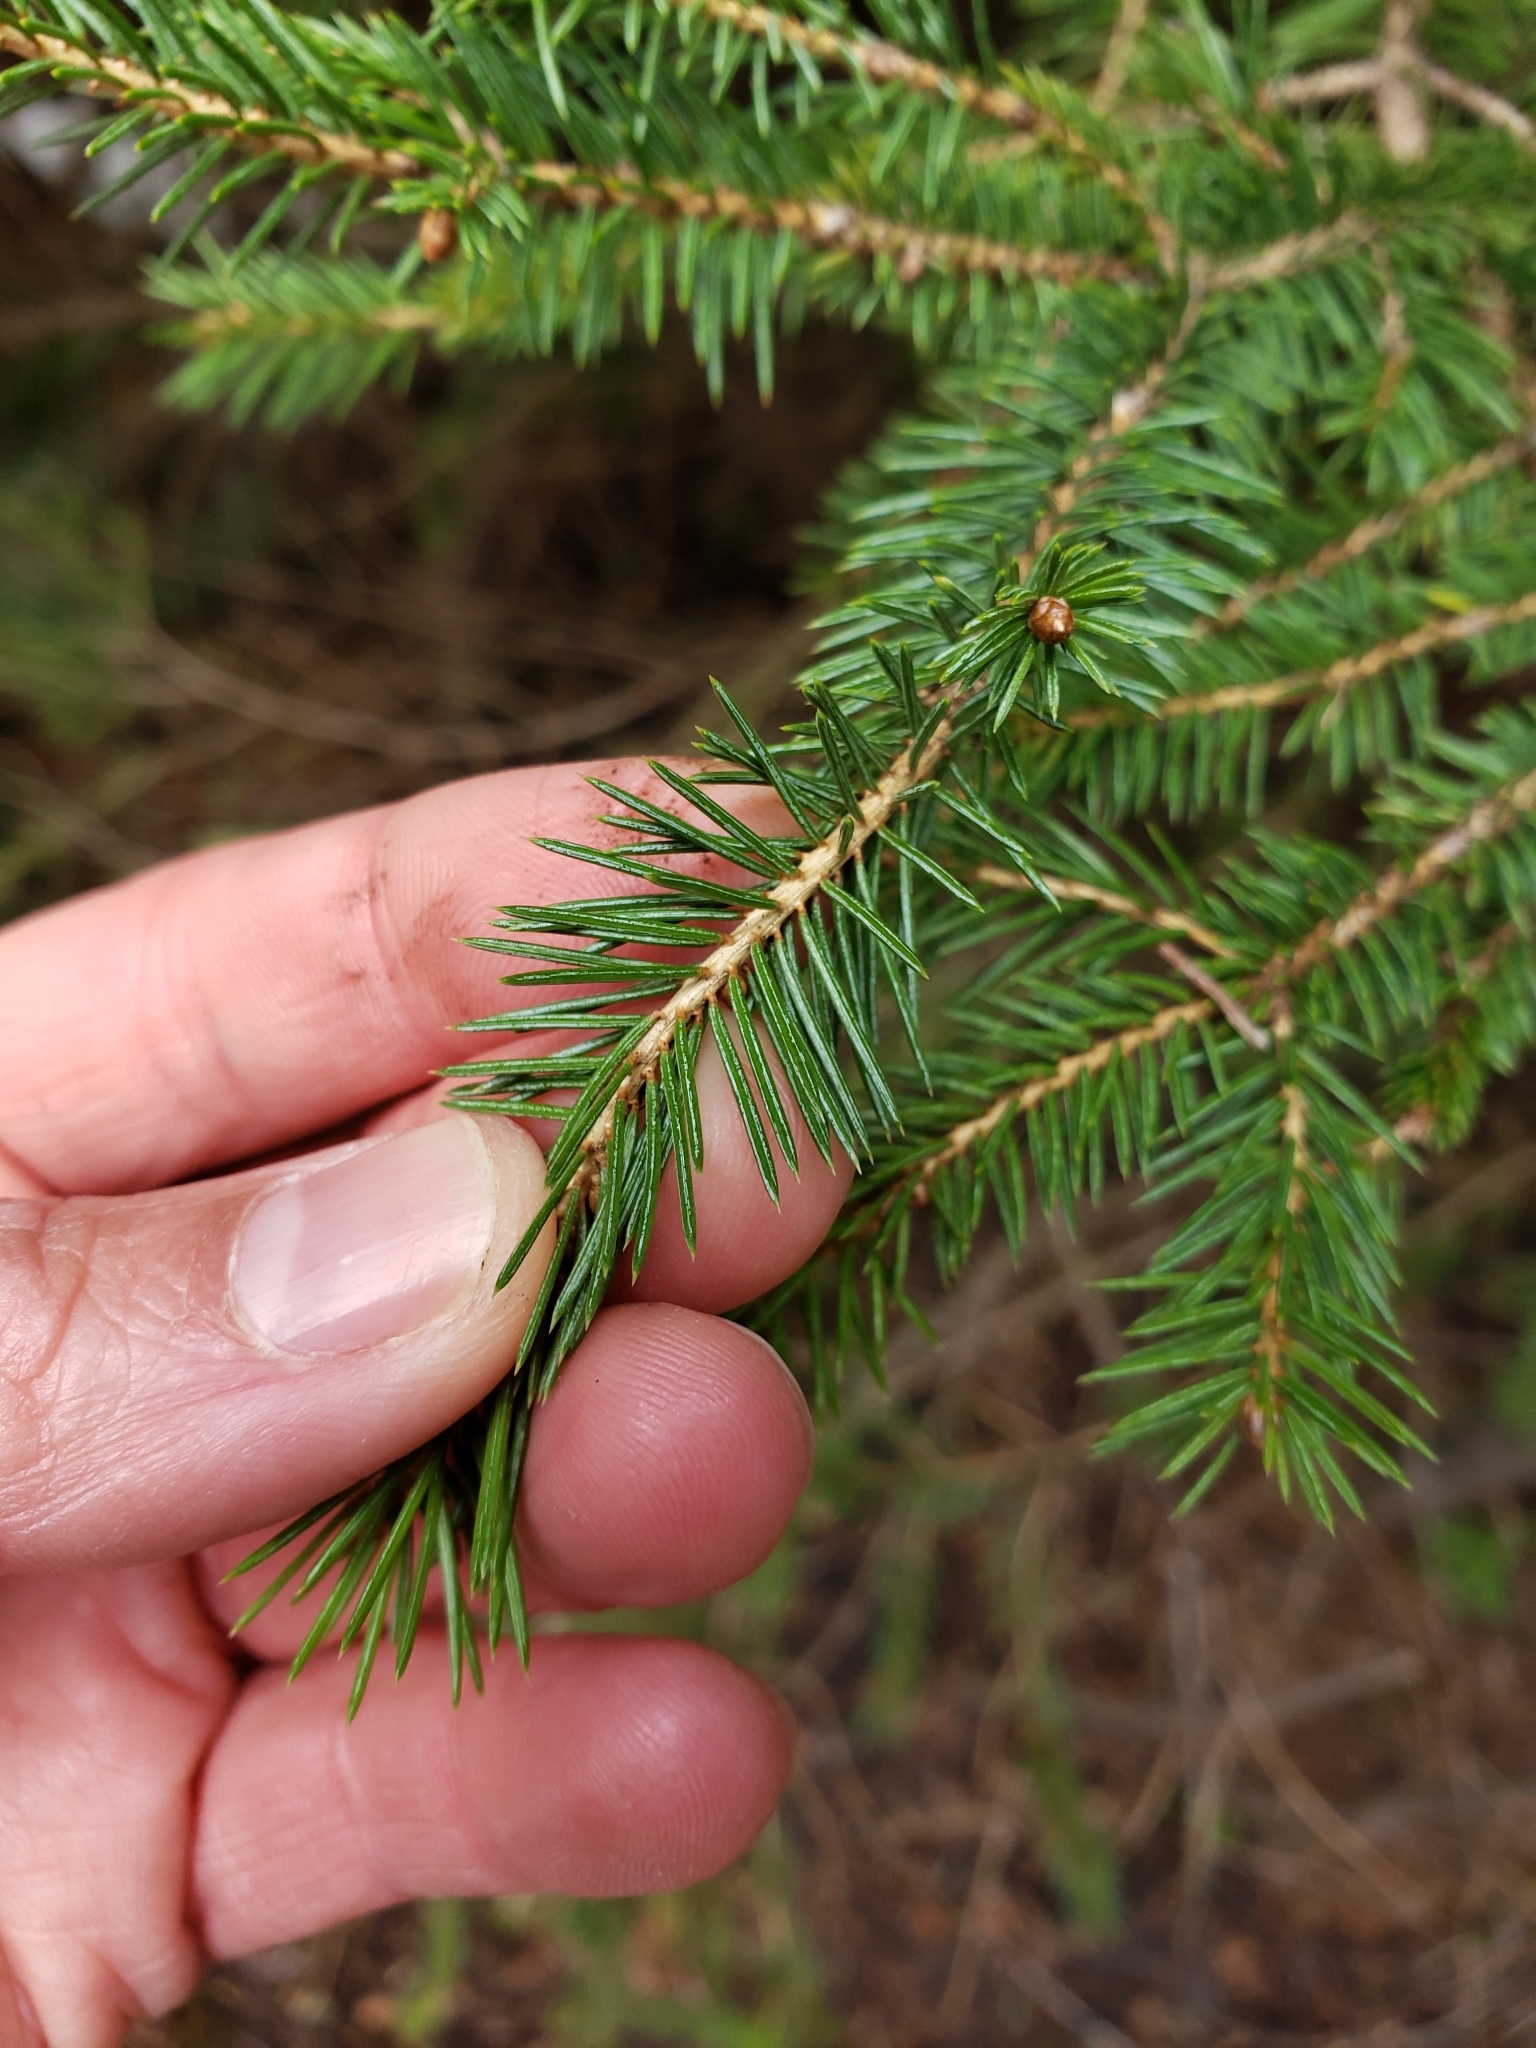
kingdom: Plantae
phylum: Tracheophyta
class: Pinopsida
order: Pinales
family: Pinaceae
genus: Picea
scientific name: Picea engelmannii
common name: Engelmann spruce
